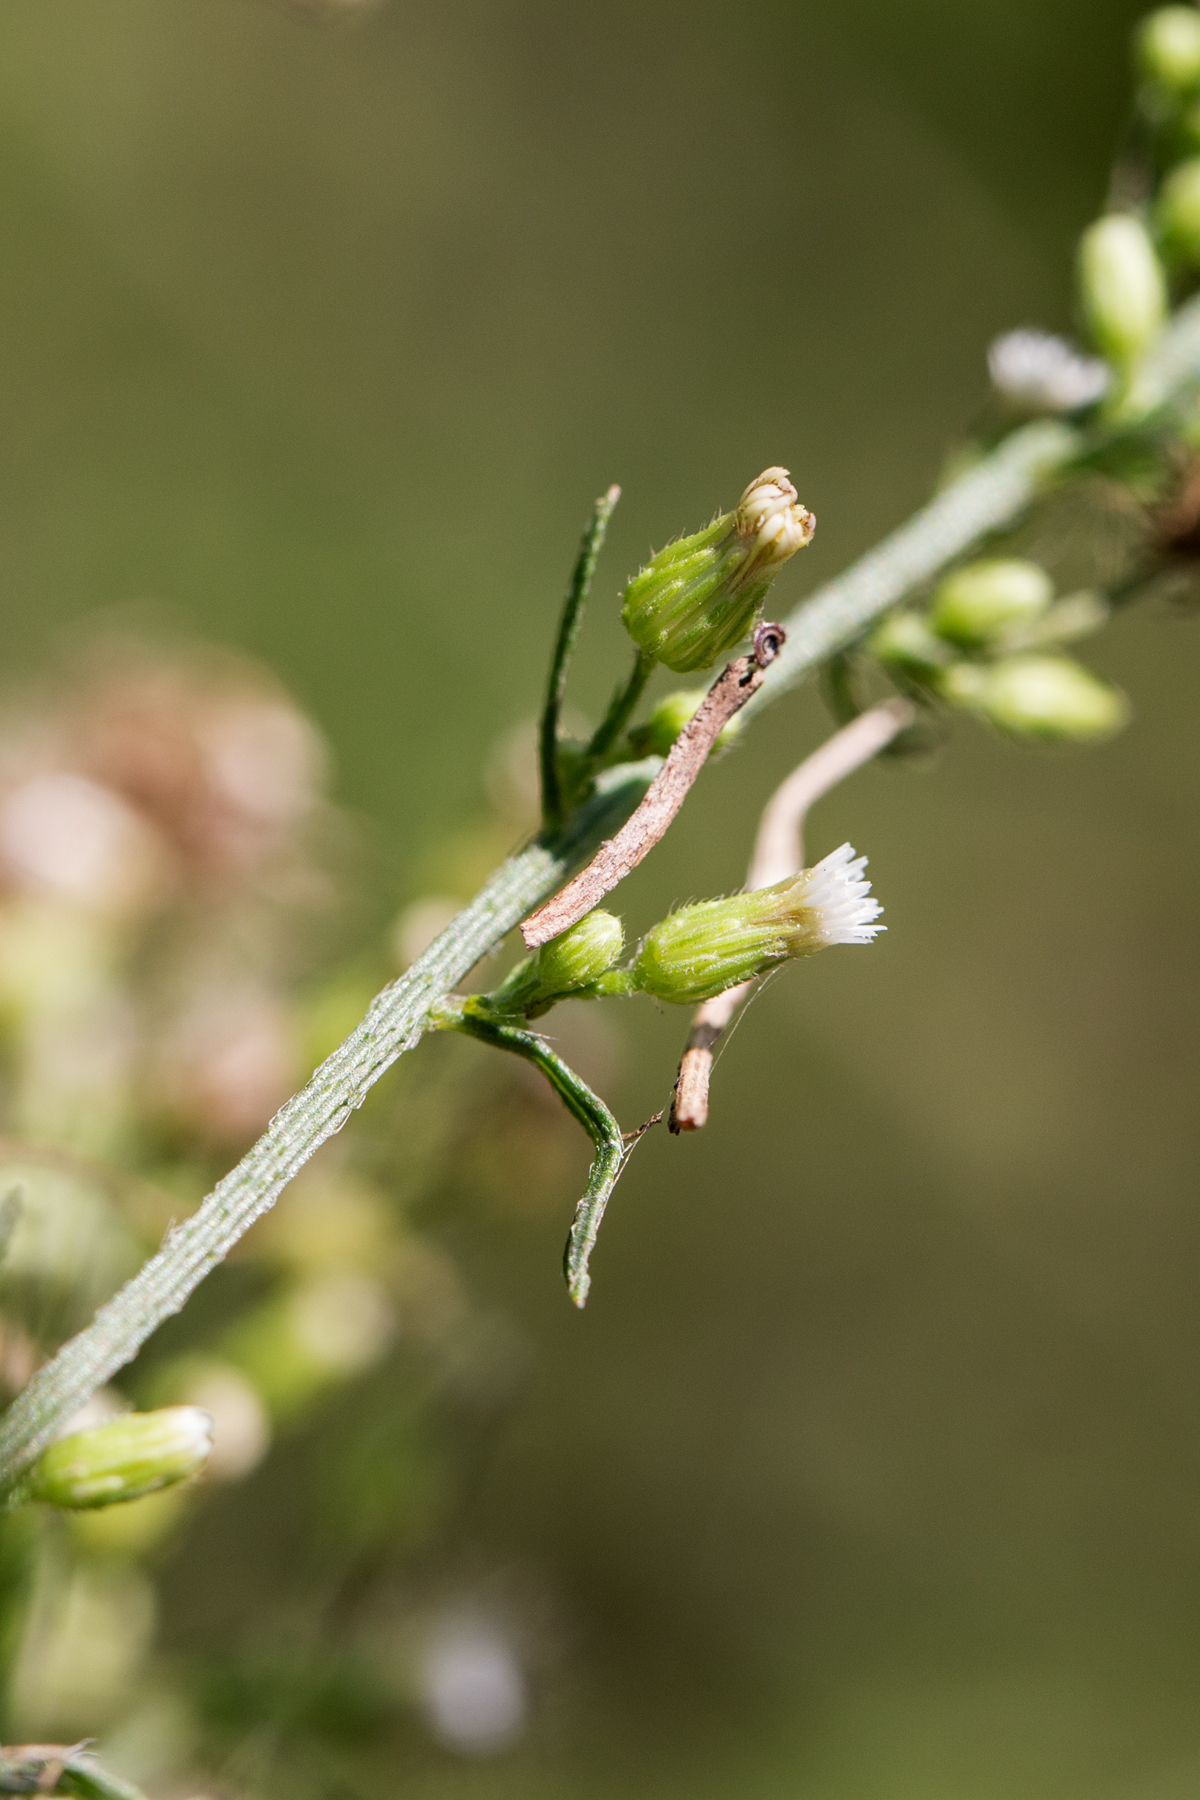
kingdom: Plantae
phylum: Tracheophyta
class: Magnoliopsida
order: Asterales
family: Asteraceae
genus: Erigeron
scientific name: Erigeron canadensis
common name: Canadian fleabane
